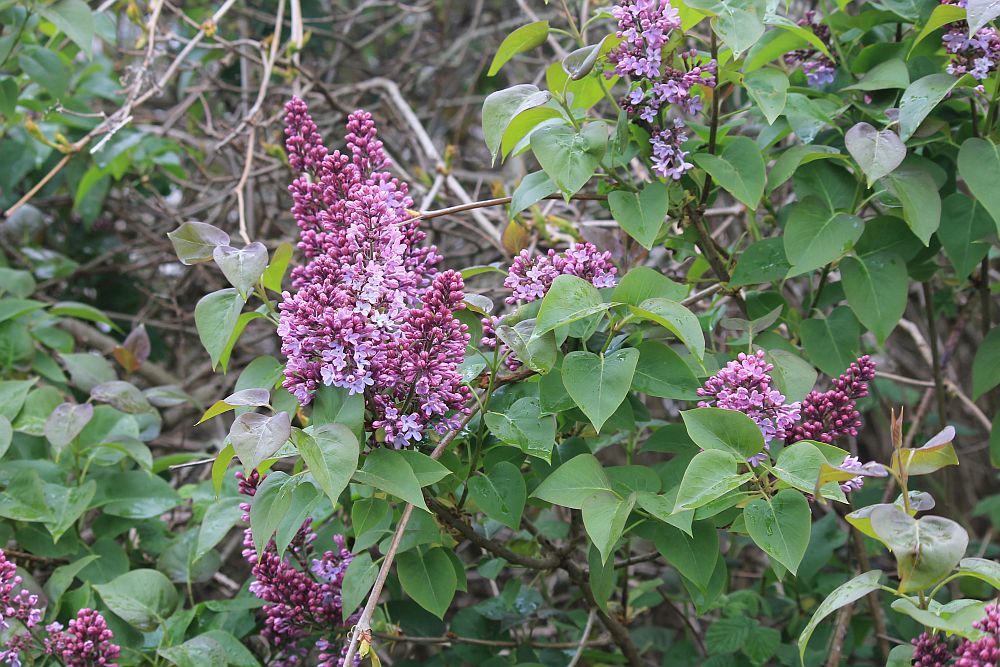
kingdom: Plantae
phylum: Tracheophyta
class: Magnoliopsida
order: Lamiales
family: Oleaceae
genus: Syringa
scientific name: Syringa vulgaris
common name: Common lilac
